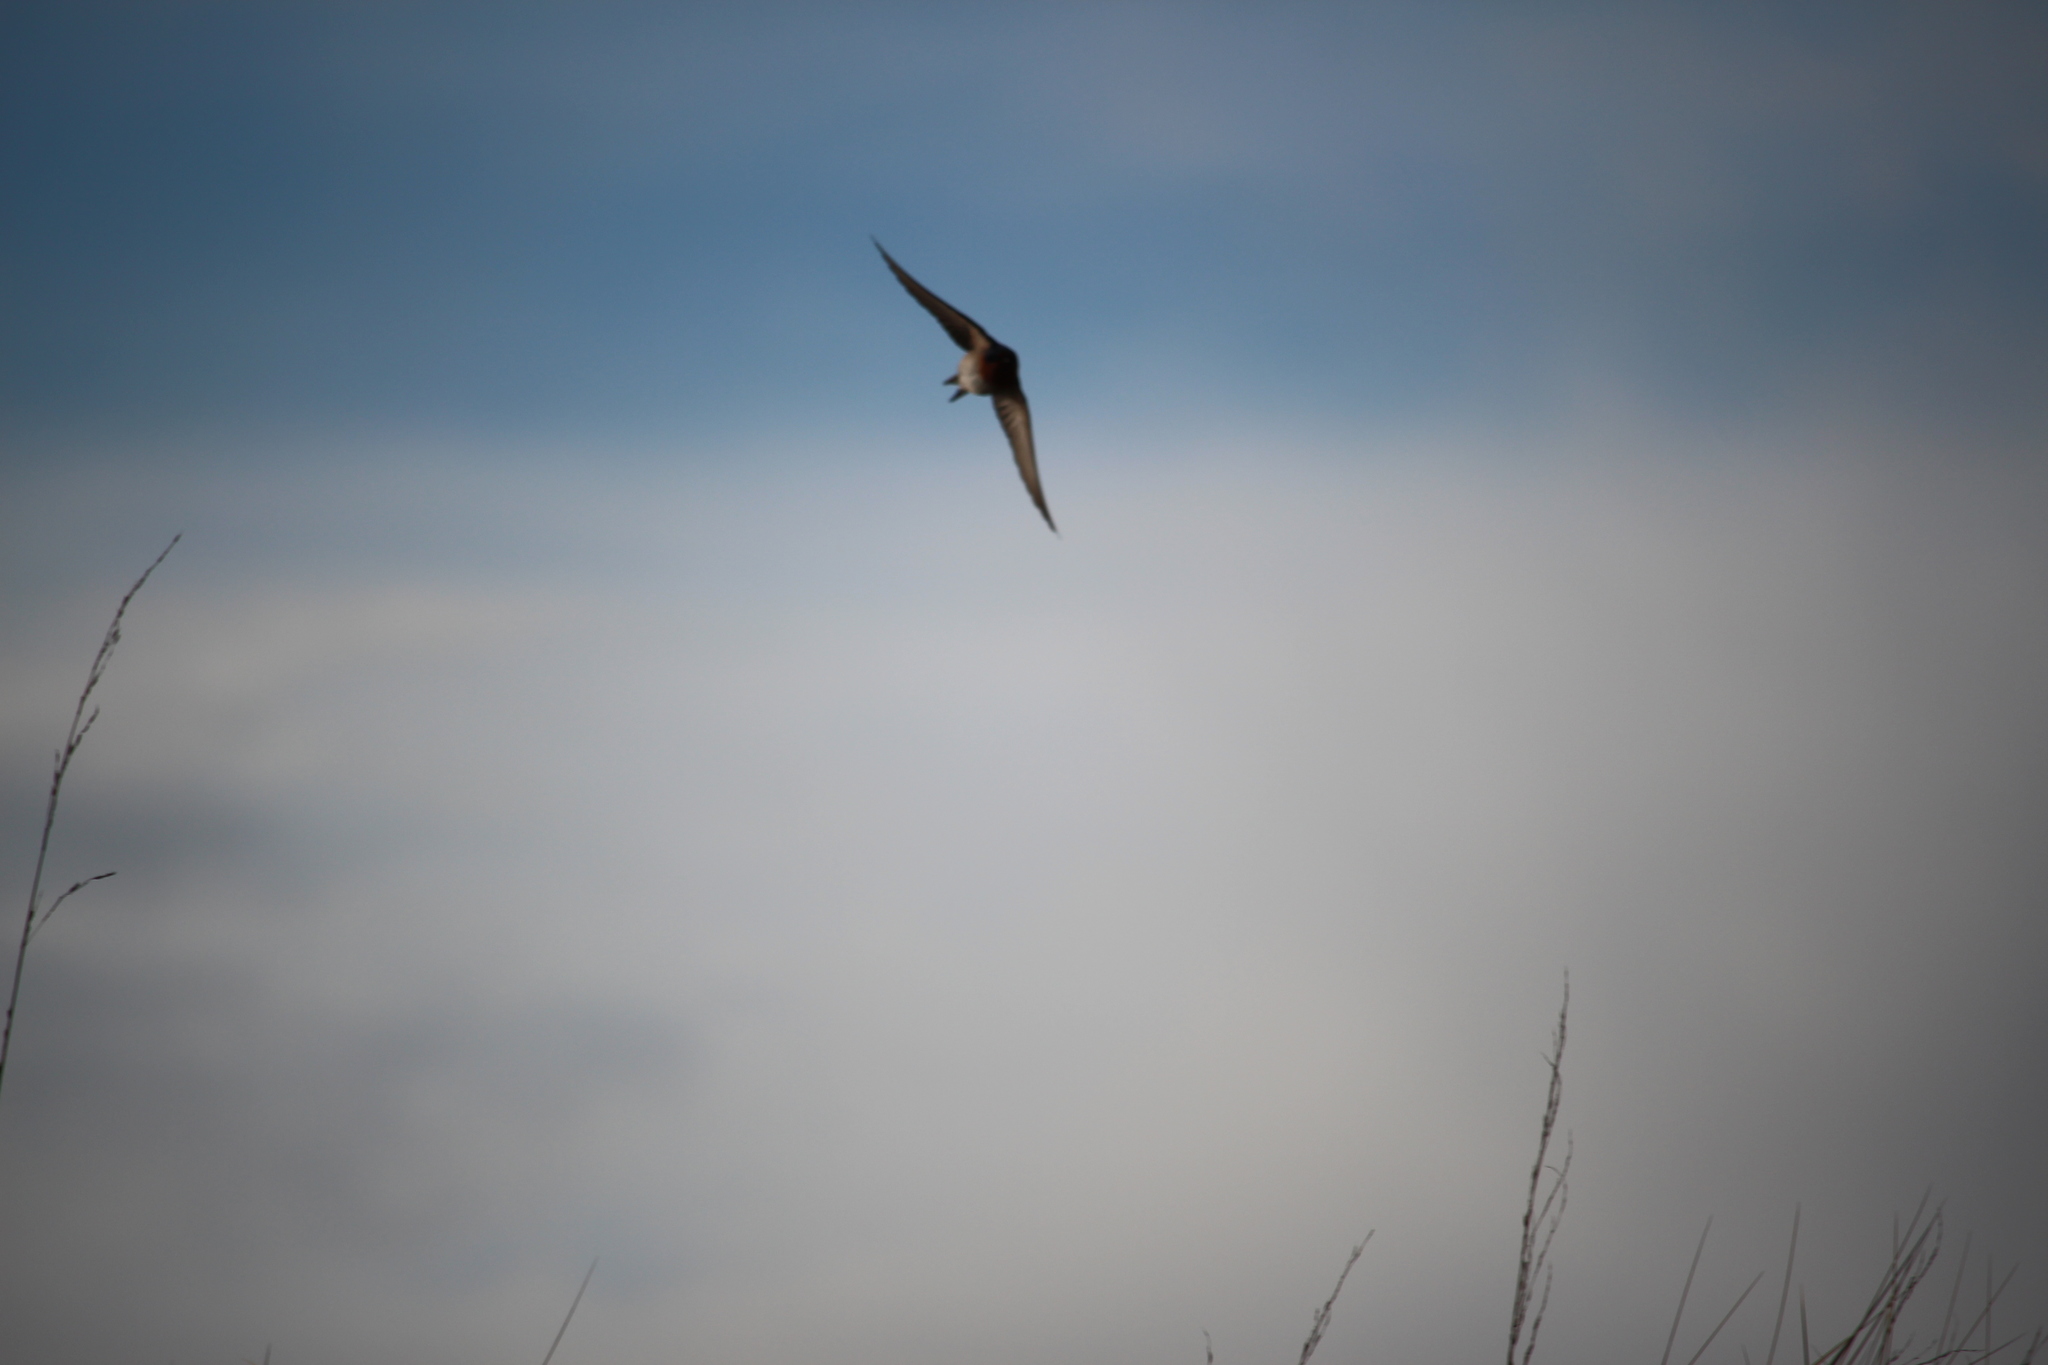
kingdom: Animalia
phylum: Chordata
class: Aves
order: Passeriformes
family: Hirundinidae
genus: Hirundo
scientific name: Hirundo neoxena
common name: Welcome swallow
